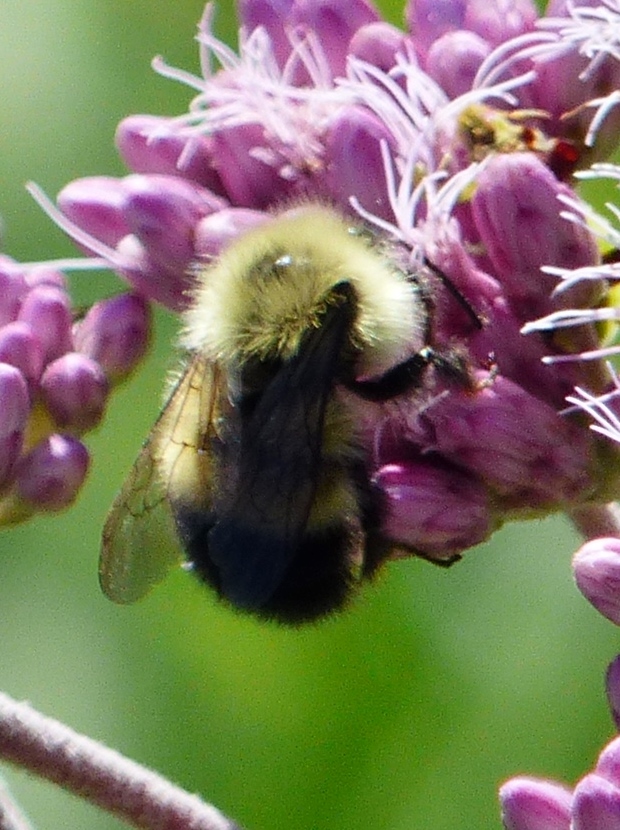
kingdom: Animalia
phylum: Arthropoda
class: Insecta
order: Hymenoptera
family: Apidae
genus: Pyrobombus
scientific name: Pyrobombus
